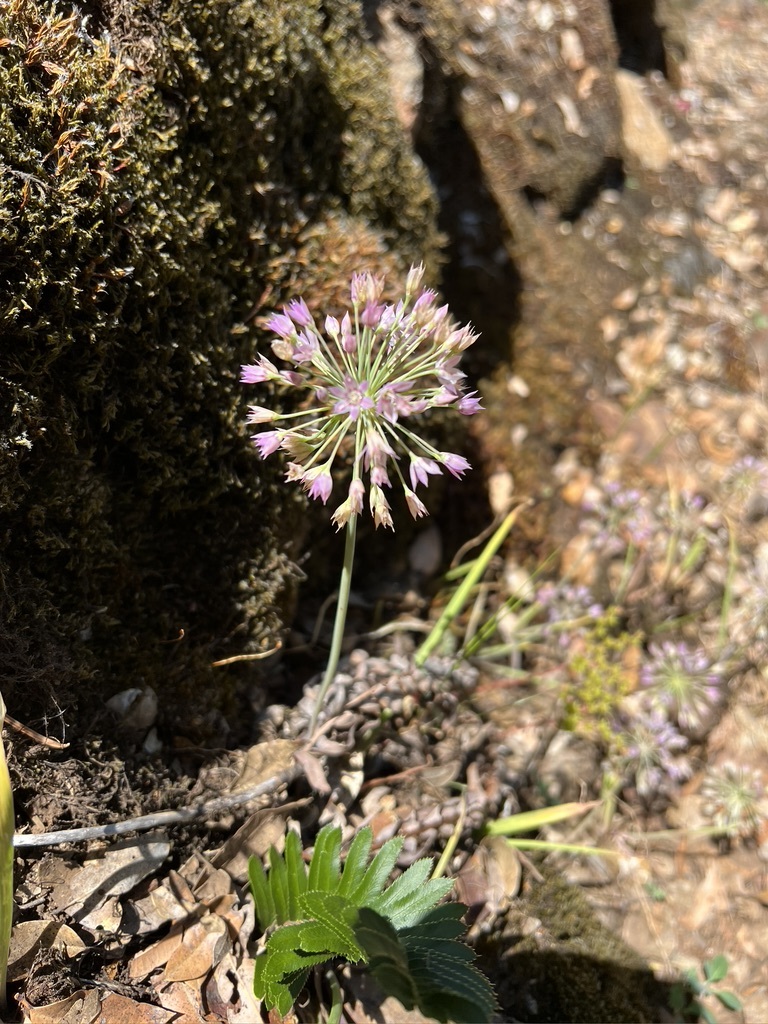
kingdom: Plantae
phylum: Tracheophyta
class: Liliopsida
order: Asparagales
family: Amaryllidaceae
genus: Allium
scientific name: Allium campanulatum
